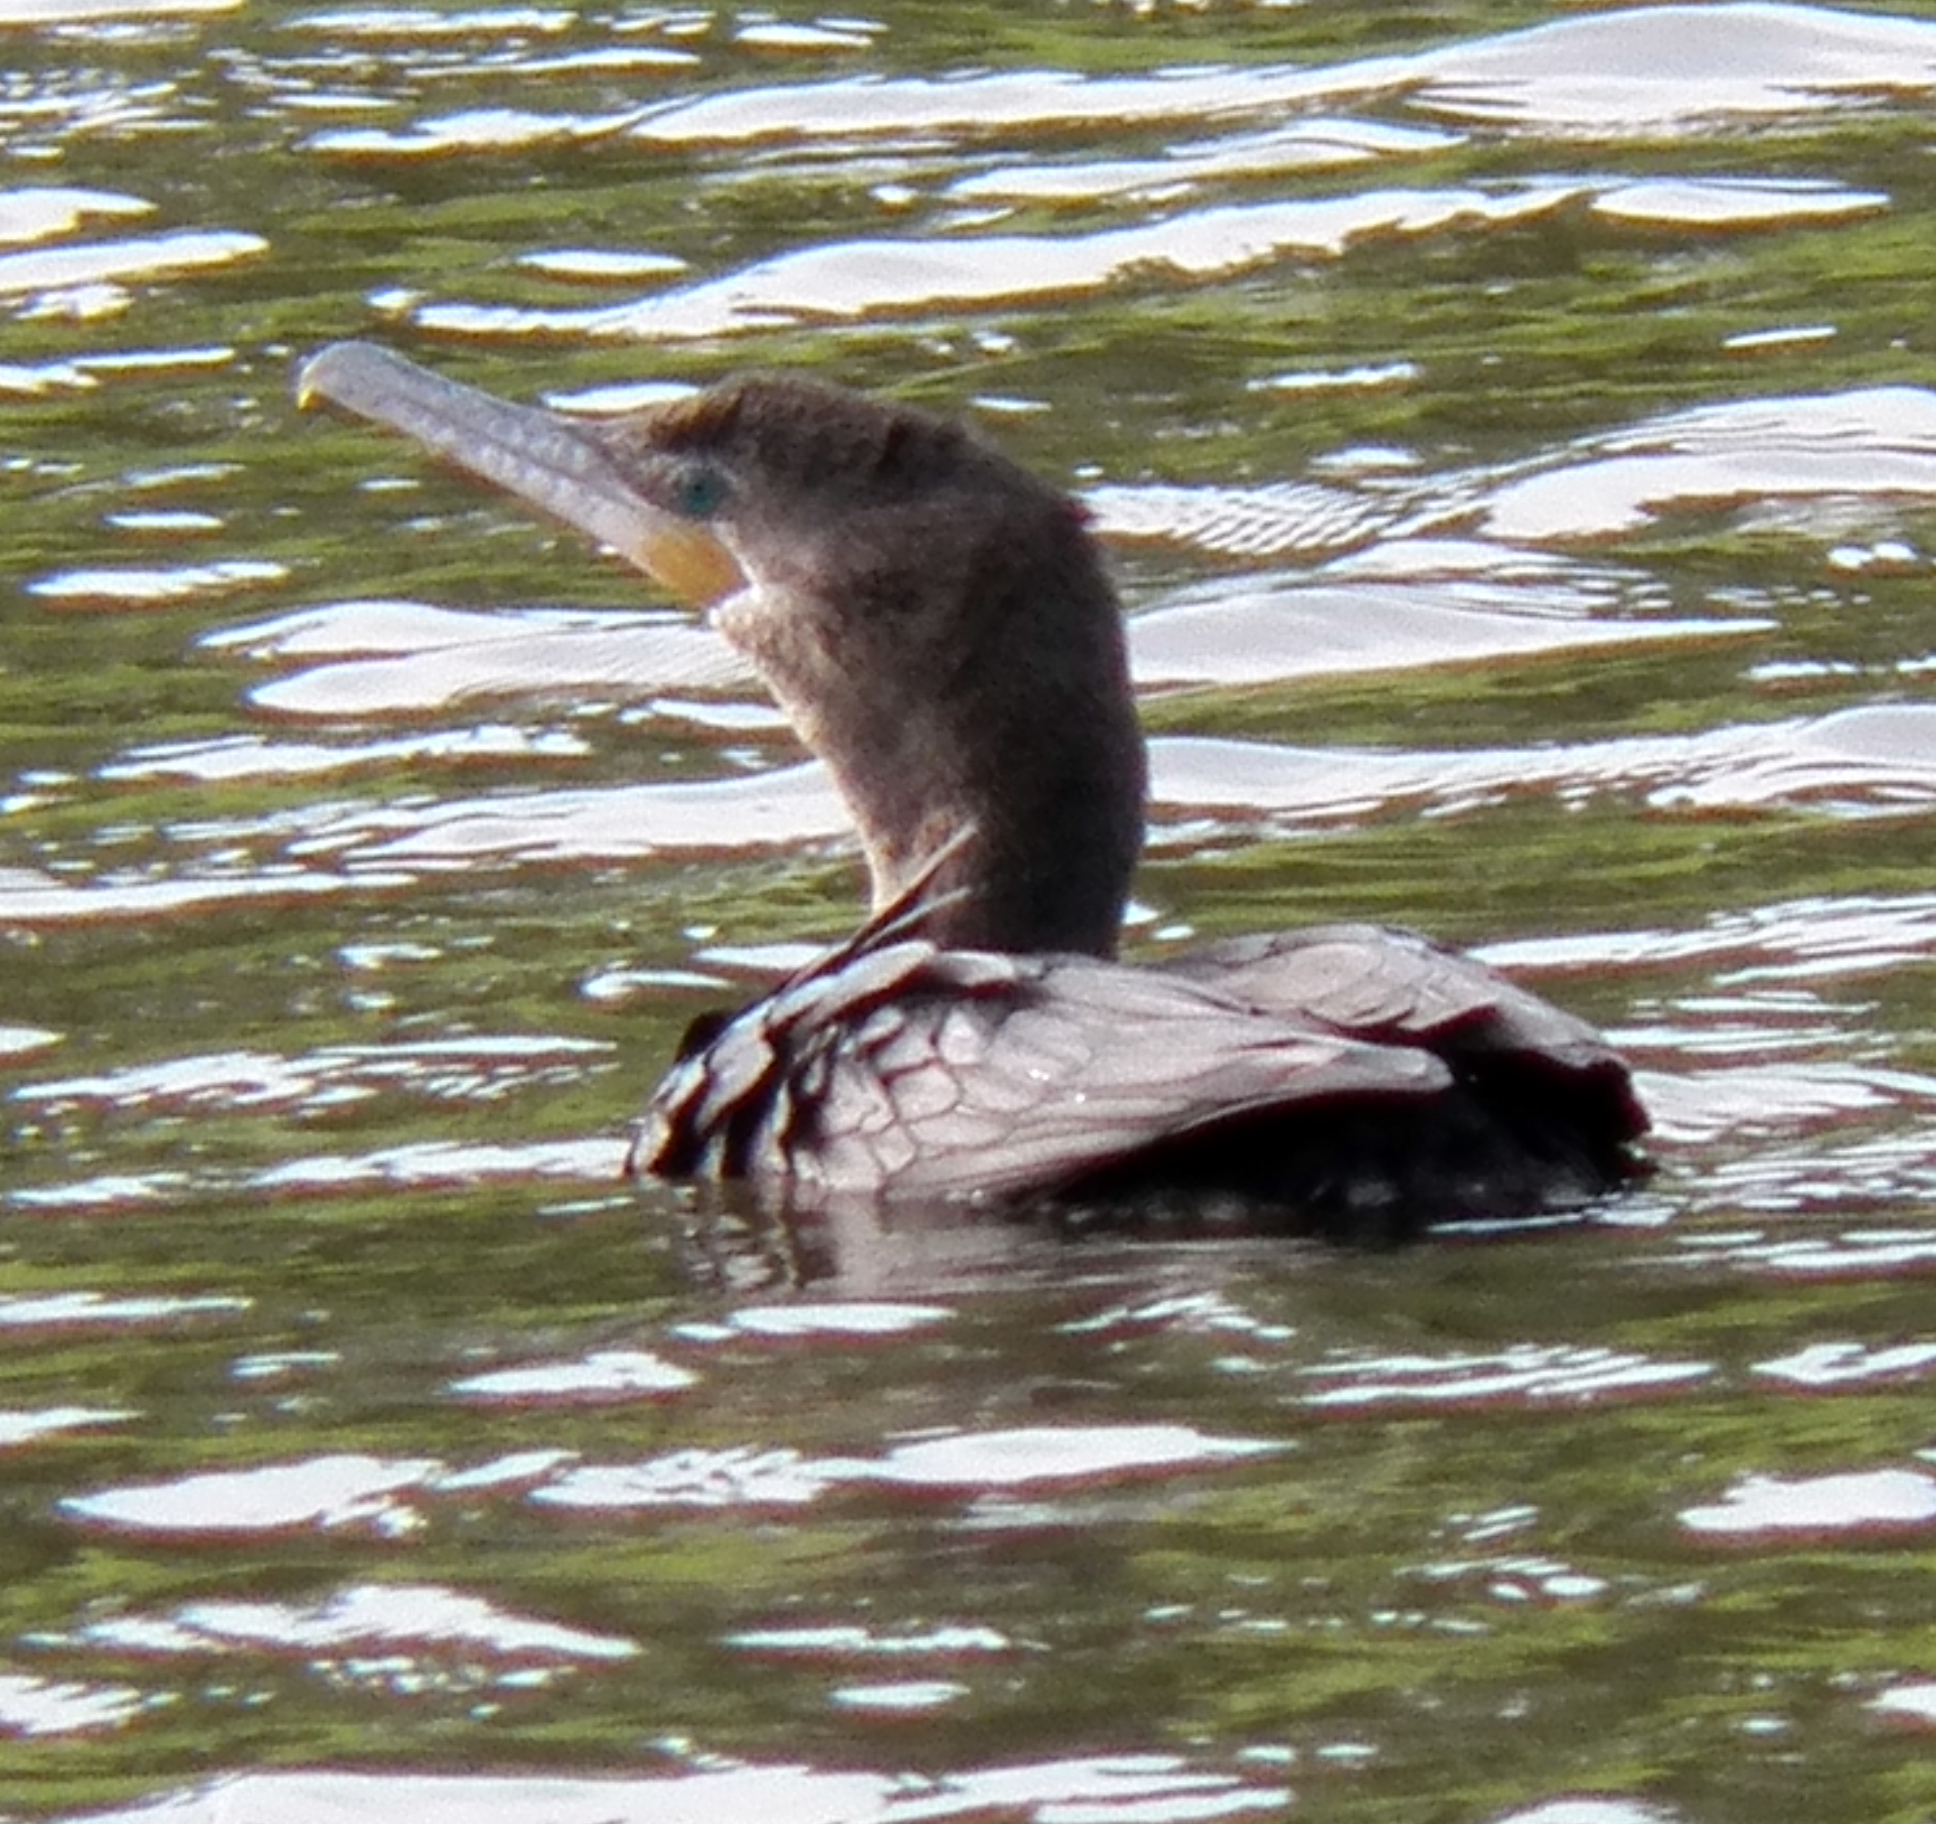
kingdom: Animalia
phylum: Chordata
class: Aves
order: Suliformes
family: Phalacrocoracidae
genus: Phalacrocorax
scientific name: Phalacrocorax brasilianus
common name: Neotropic cormorant
